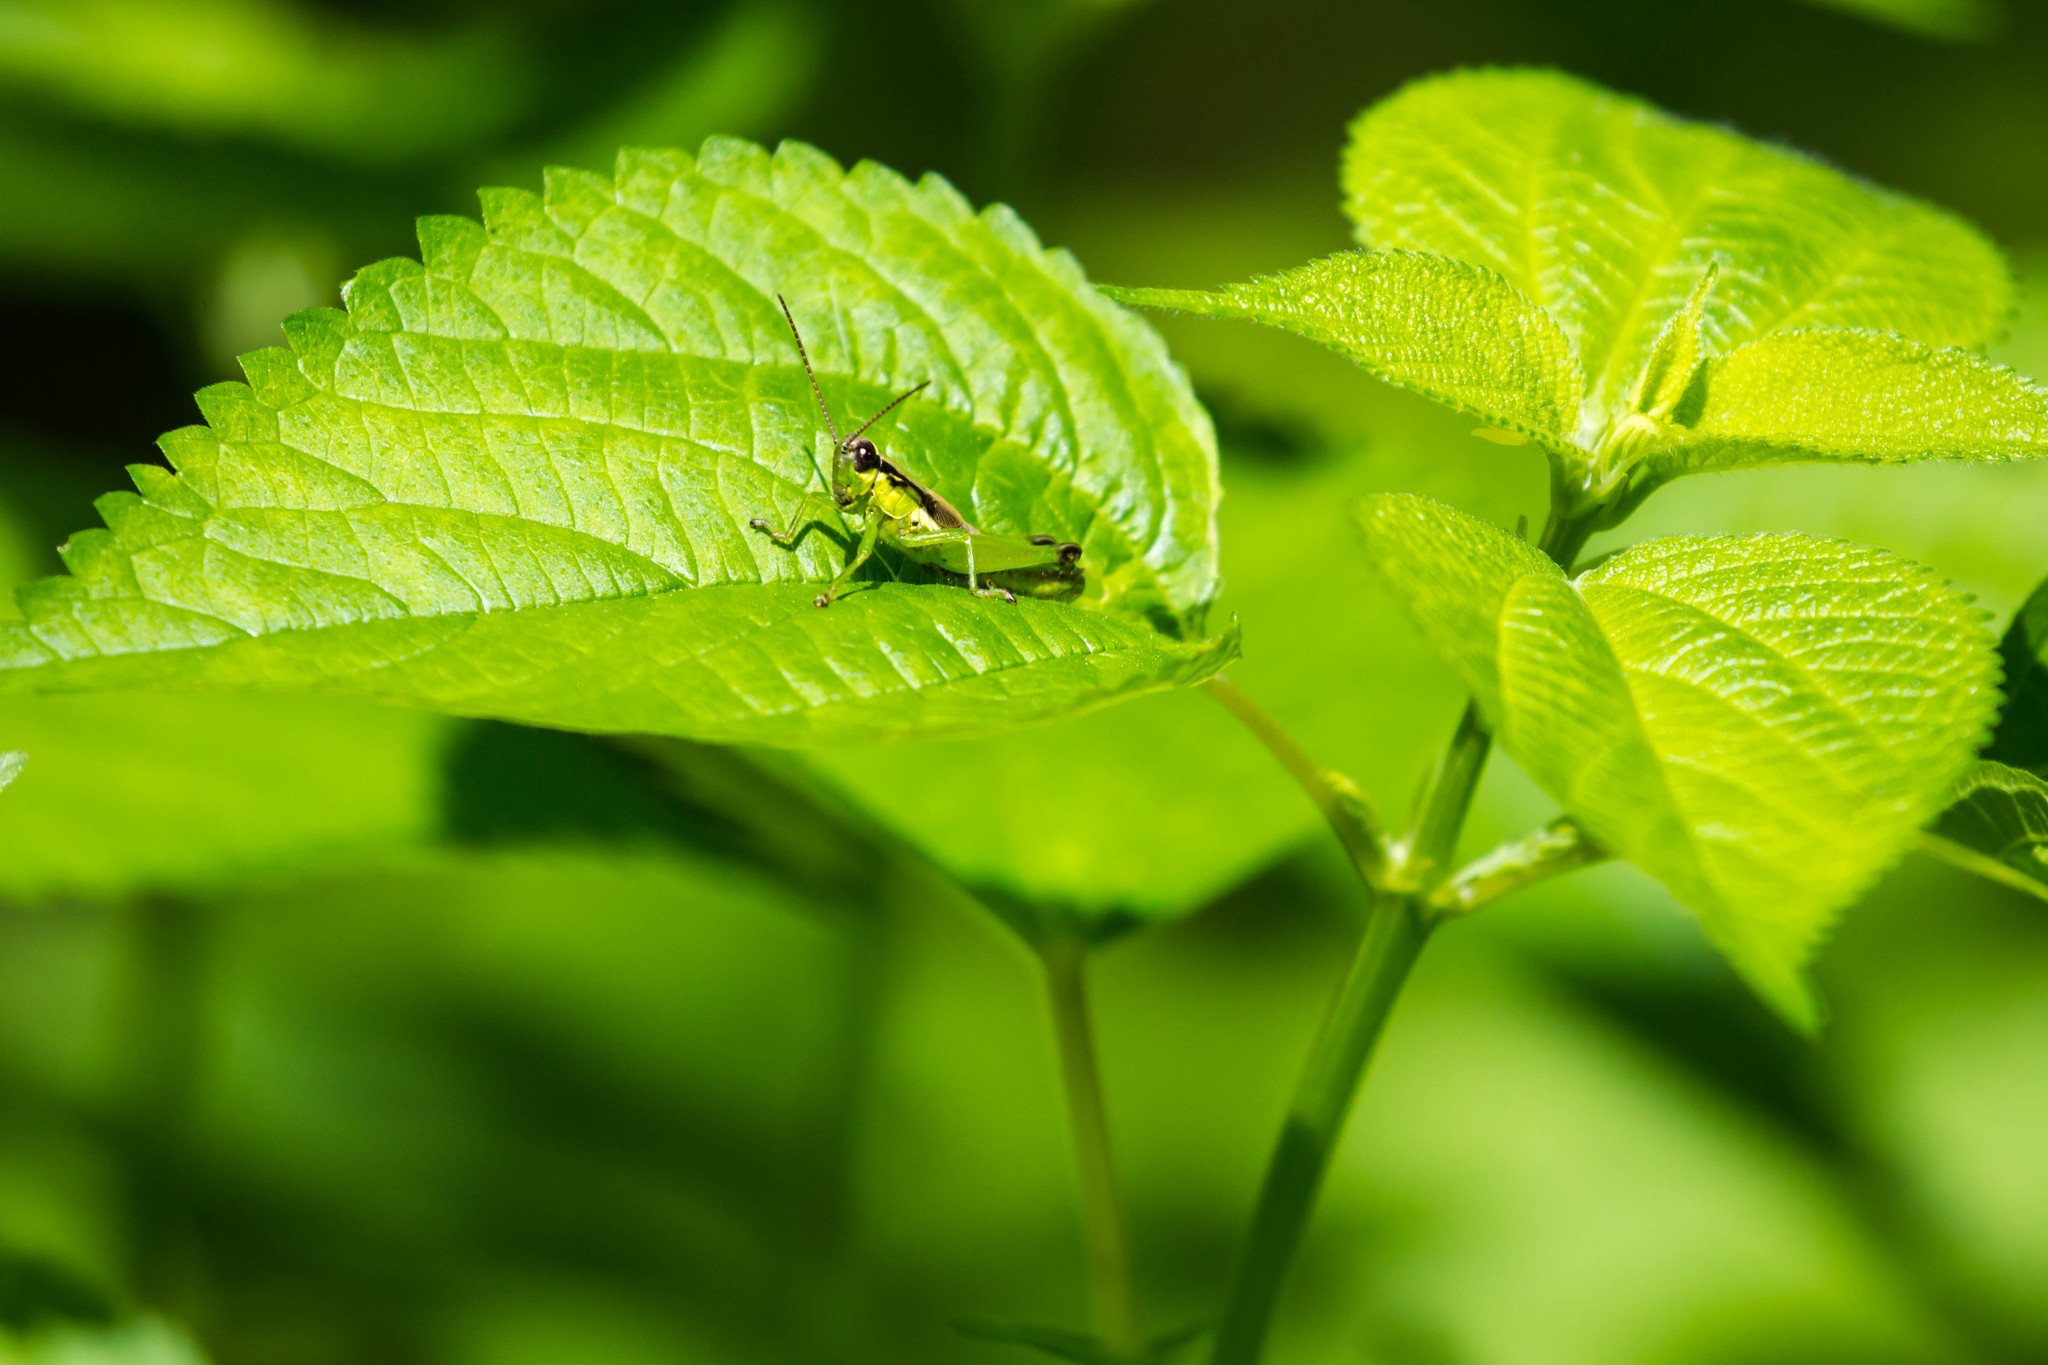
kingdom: Animalia
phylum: Arthropoda
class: Insecta
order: Orthoptera
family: Acrididae
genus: Paroxya
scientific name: Paroxya clavuligera
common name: Olive-green swamp grasshopper
